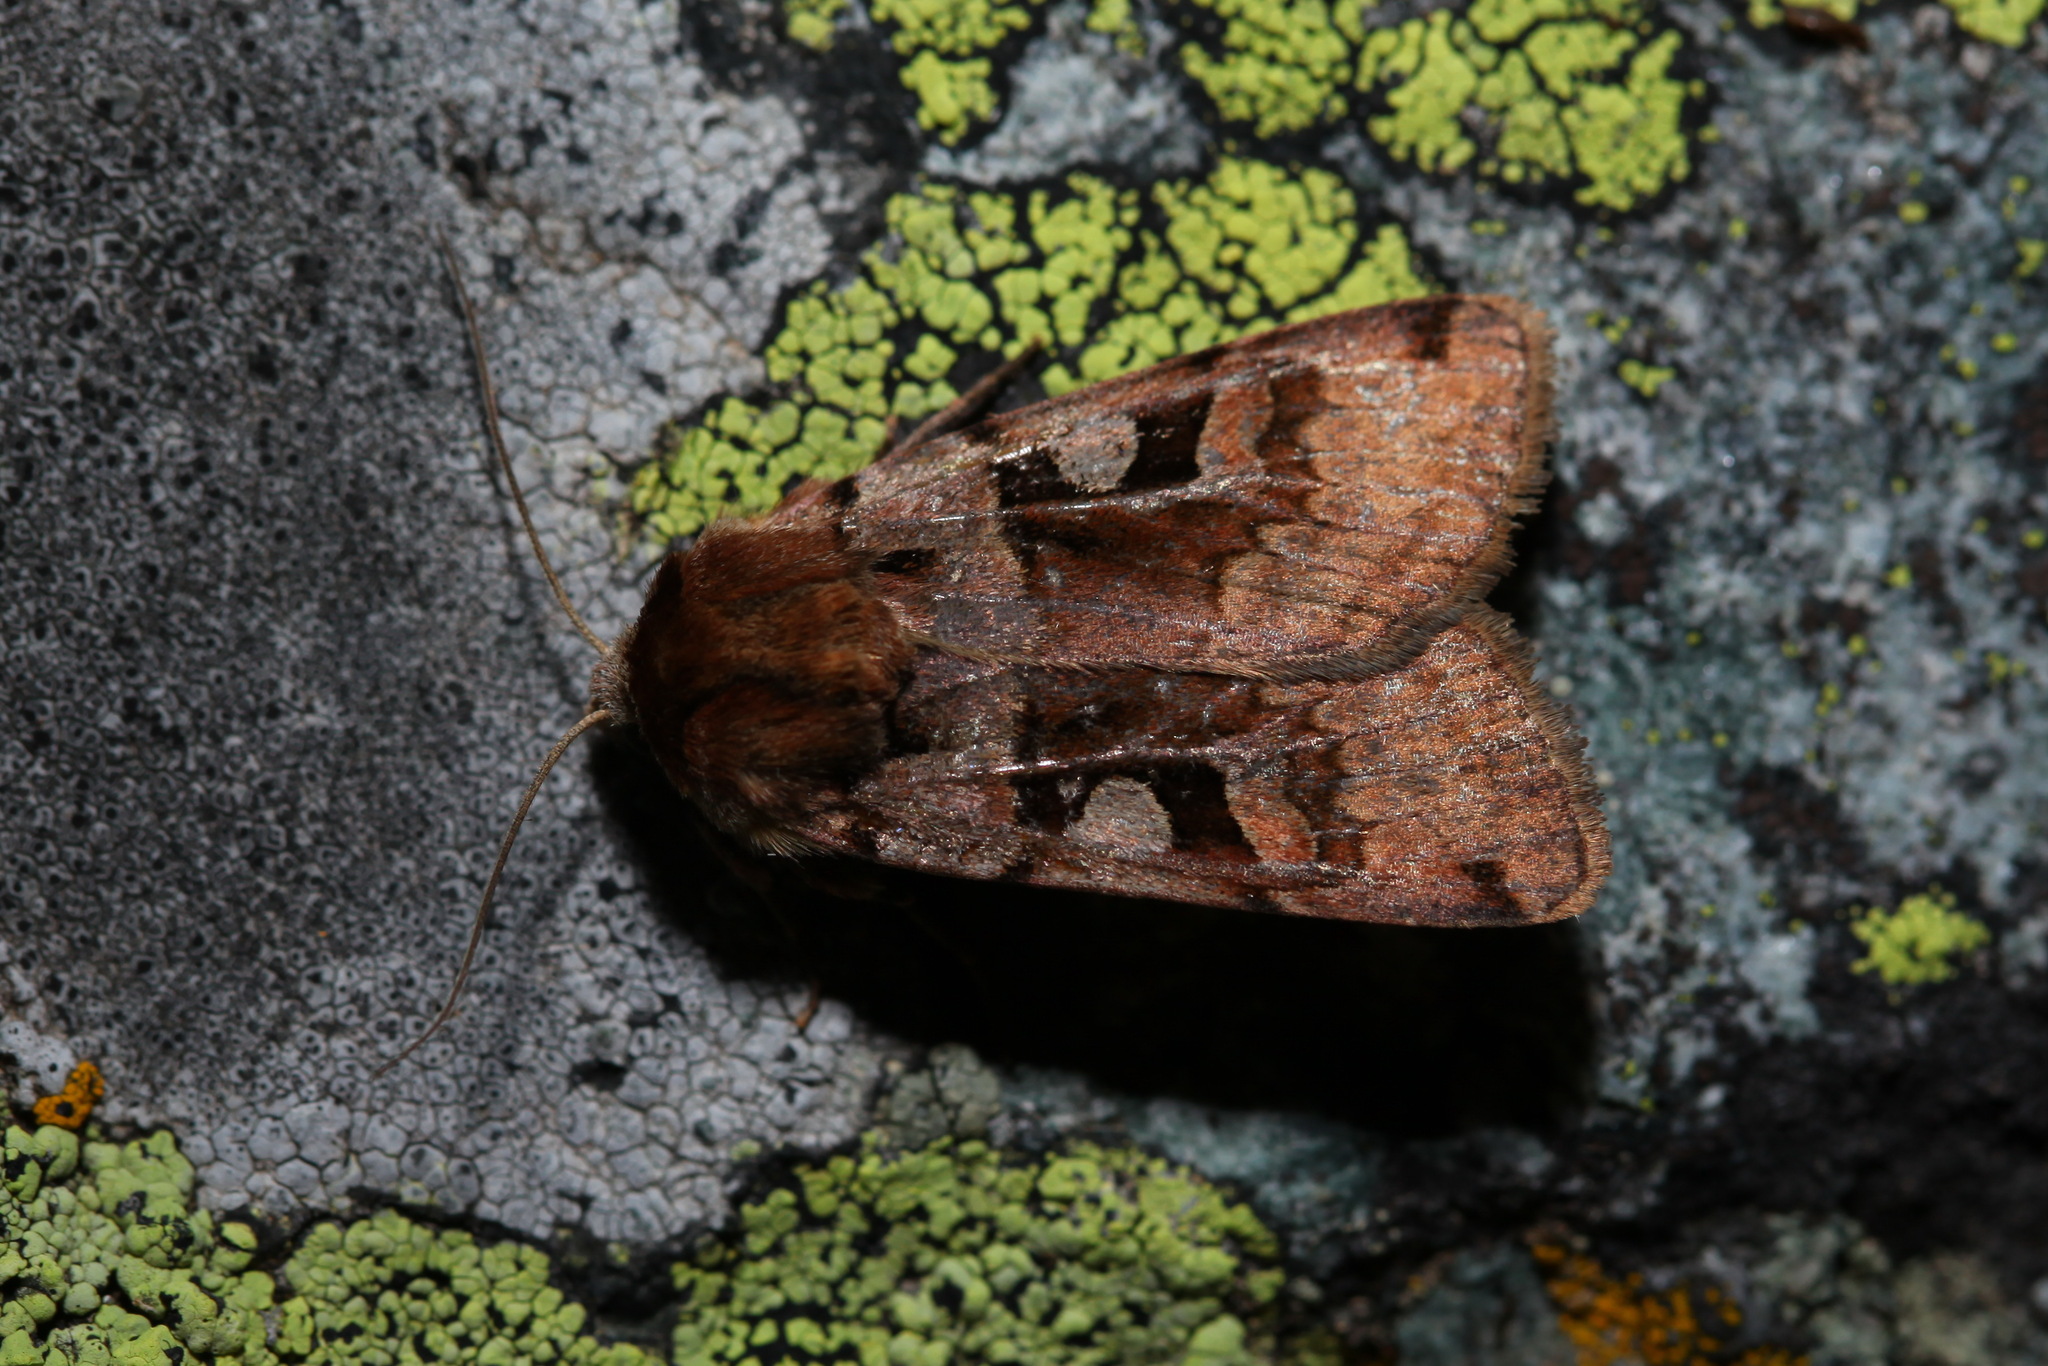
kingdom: Animalia
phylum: Arthropoda
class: Insecta
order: Lepidoptera
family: Noctuidae
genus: Xestia
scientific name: Xestia wockei
